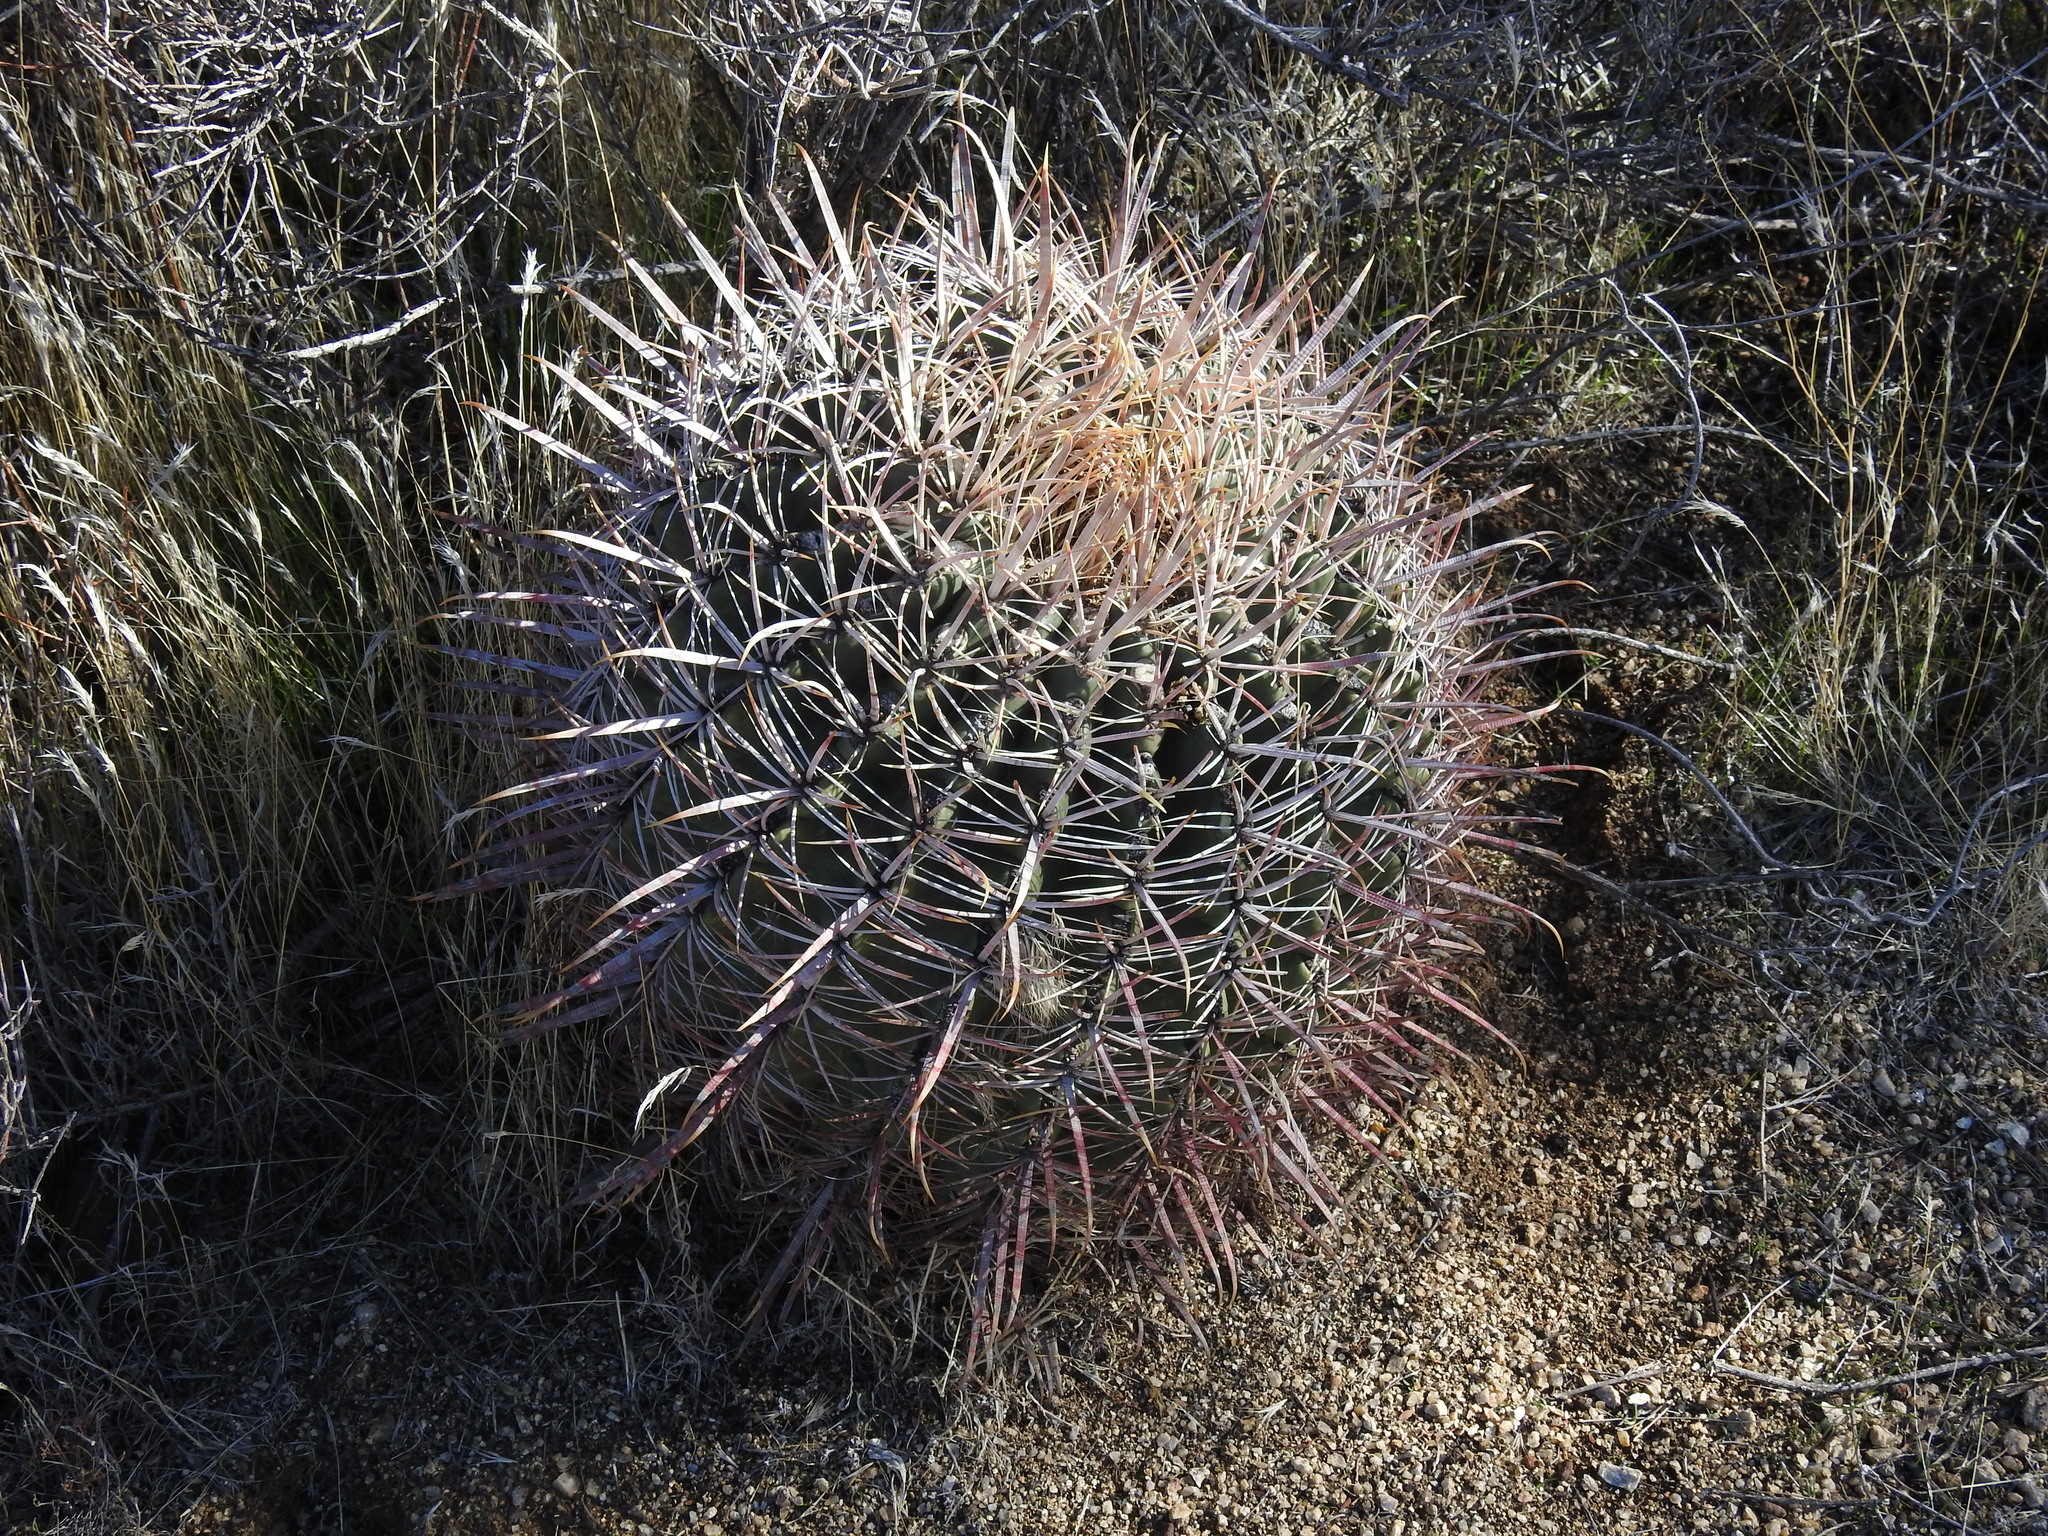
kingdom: Plantae
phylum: Tracheophyta
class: Magnoliopsida
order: Caryophyllales
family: Cactaceae
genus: Ferocactus
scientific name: Ferocactus cylindraceus
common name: California barrel cactus
